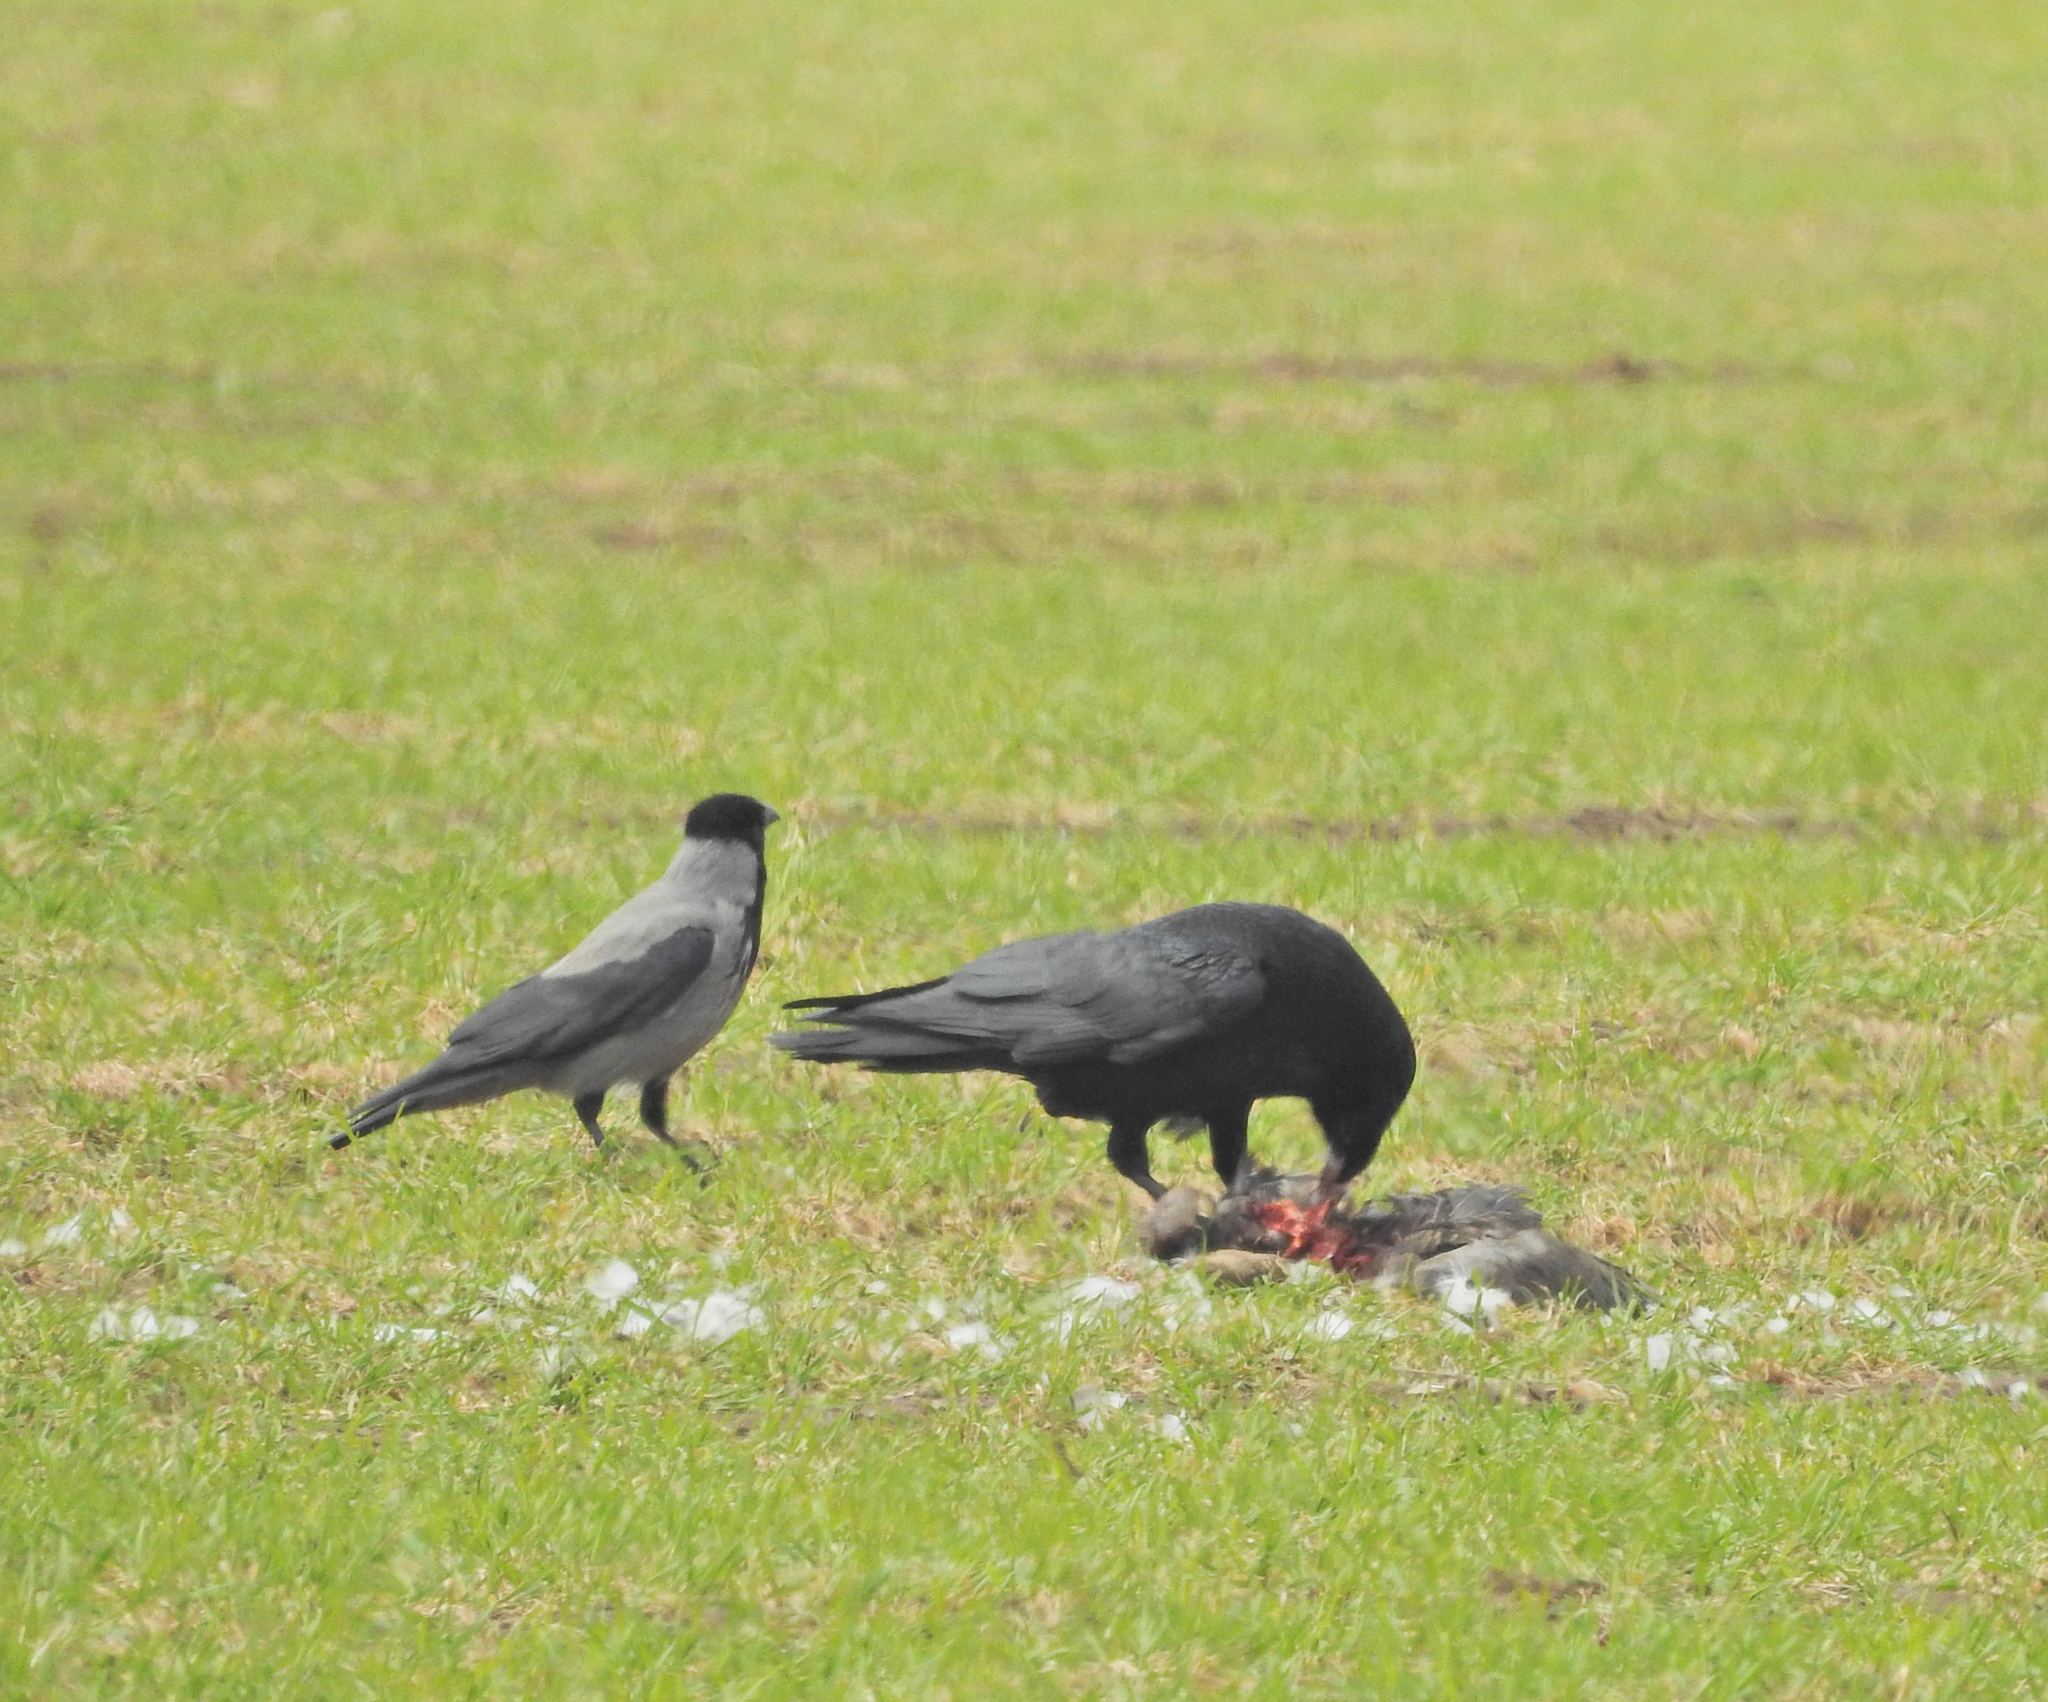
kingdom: Animalia
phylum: Chordata
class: Aves
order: Passeriformes
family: Corvidae
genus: Corvus
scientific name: Corvus cornix
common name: Hooded crow
